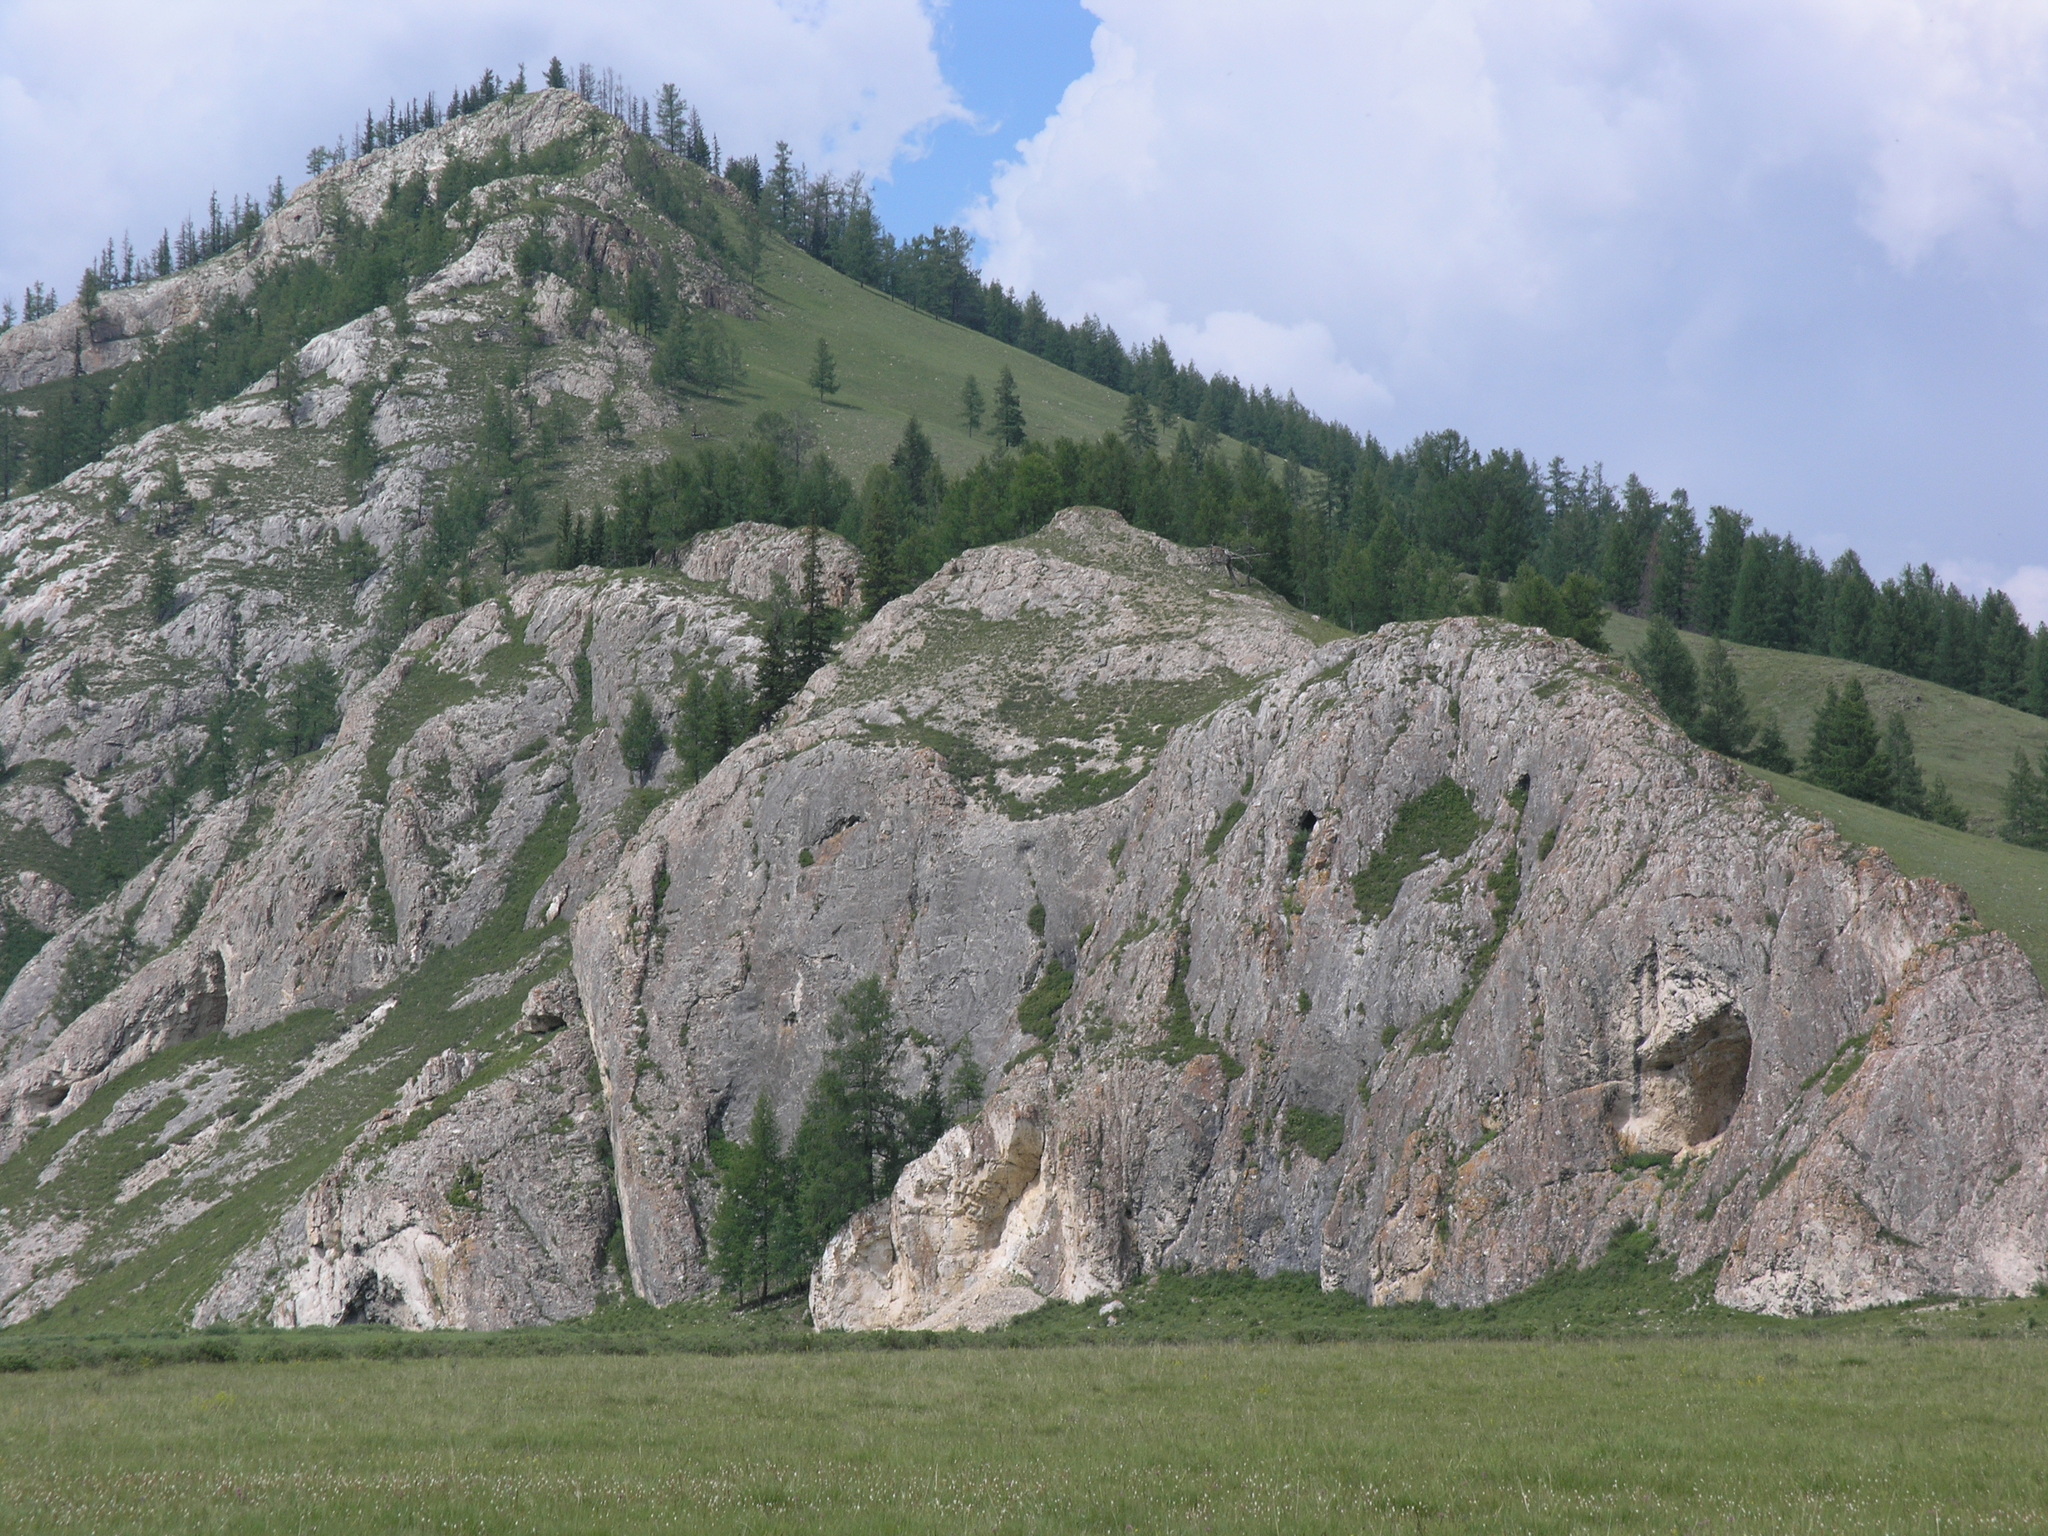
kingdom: Plantae
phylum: Tracheophyta
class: Pinopsida
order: Pinales
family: Pinaceae
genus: Larix
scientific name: Larix sibirica
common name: Siberian larch
